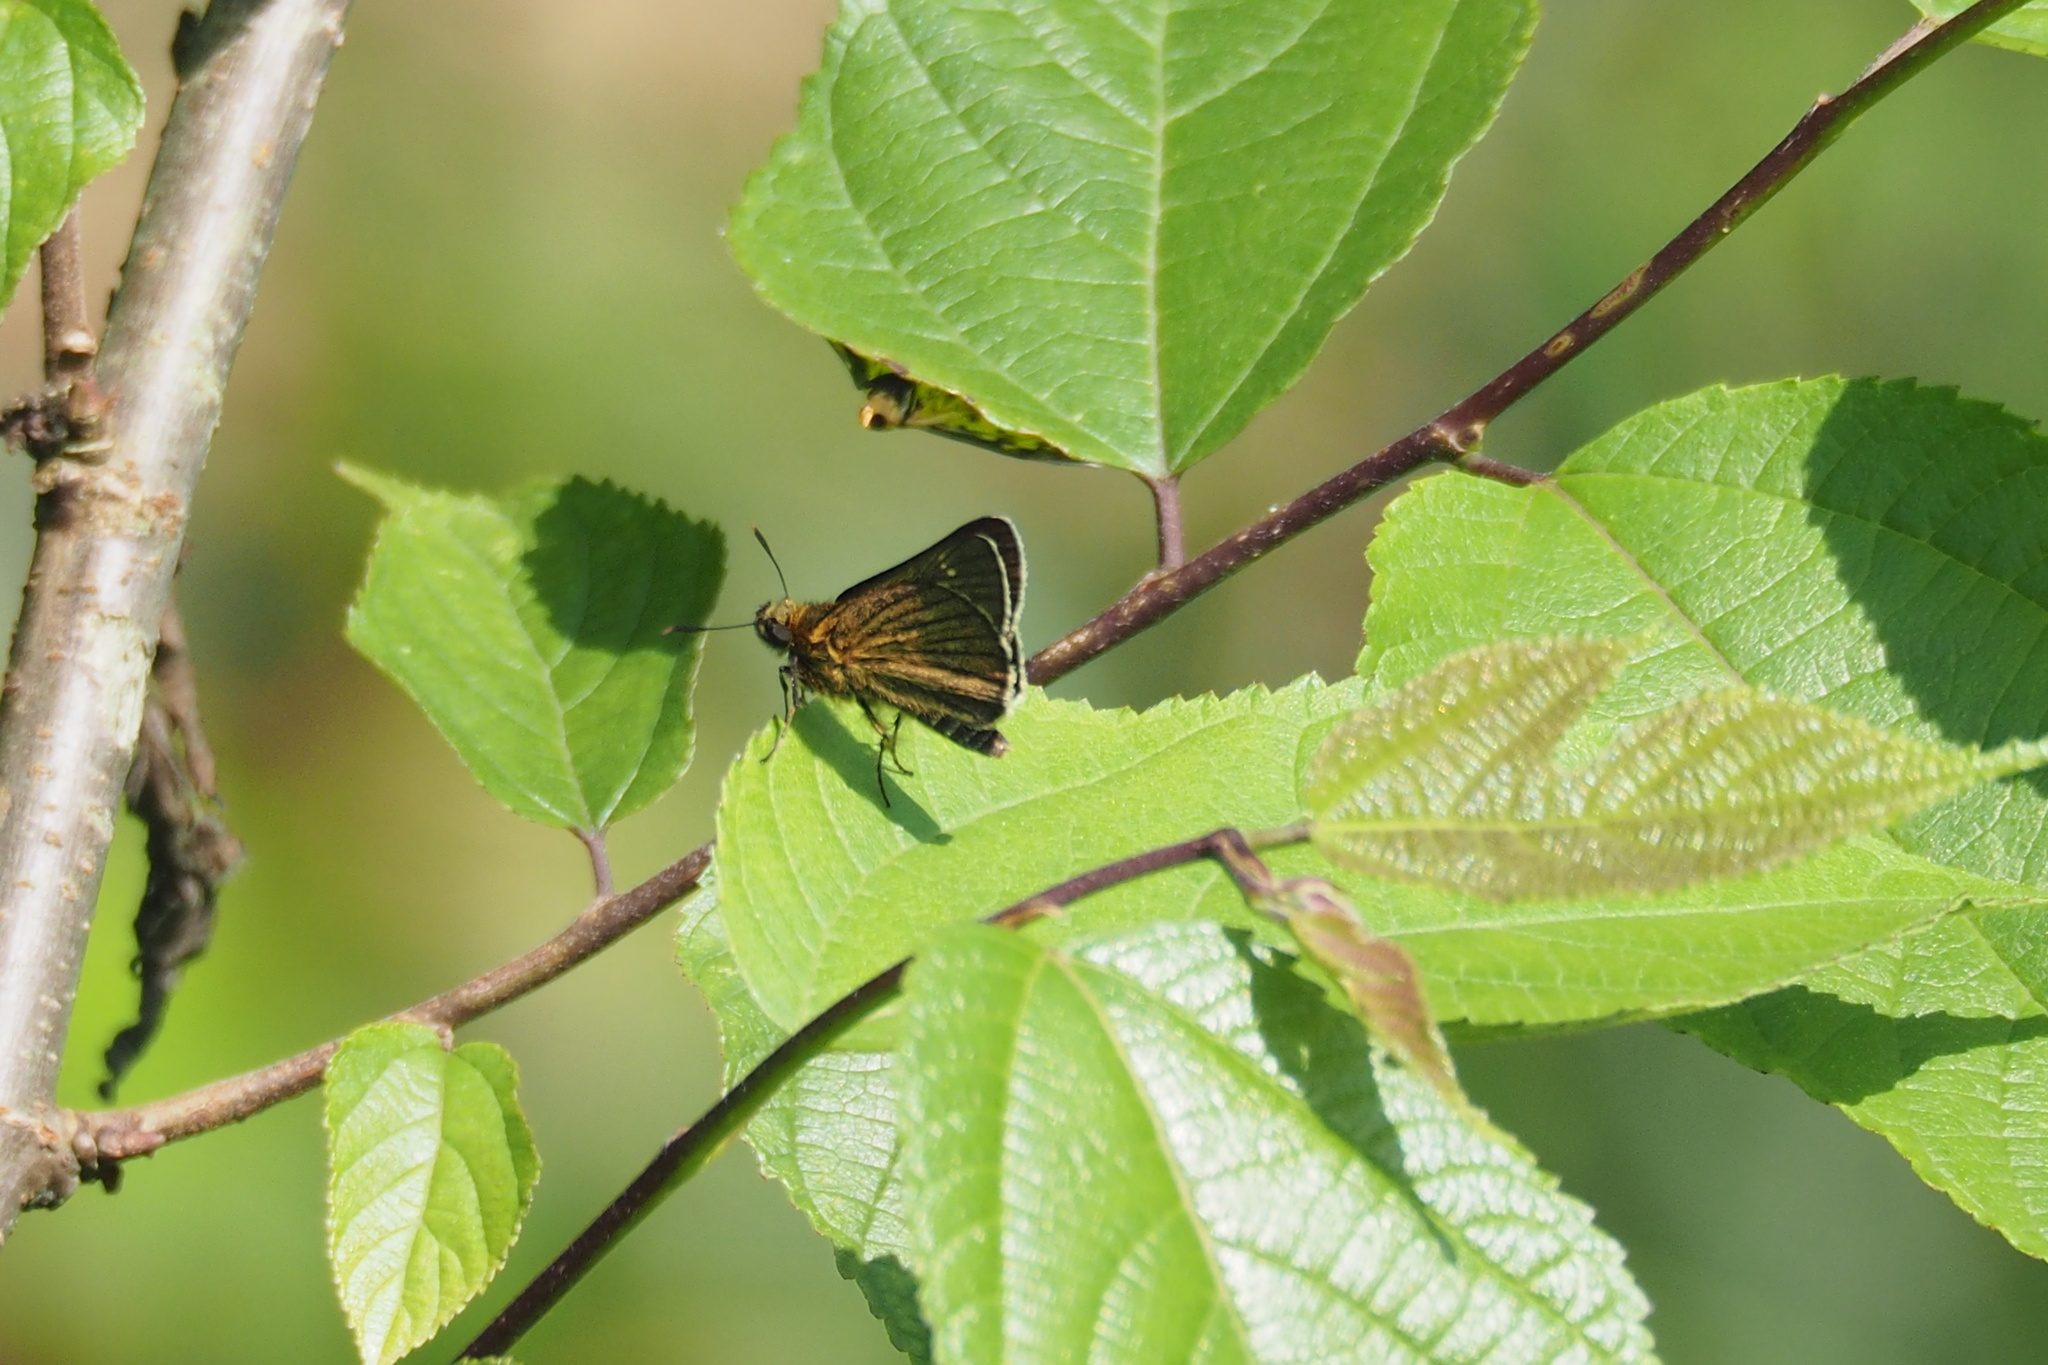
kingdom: Animalia
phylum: Arthropoda
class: Insecta
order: Lepidoptera
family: Hesperiidae
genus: Thoressa
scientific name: Thoressa varia
